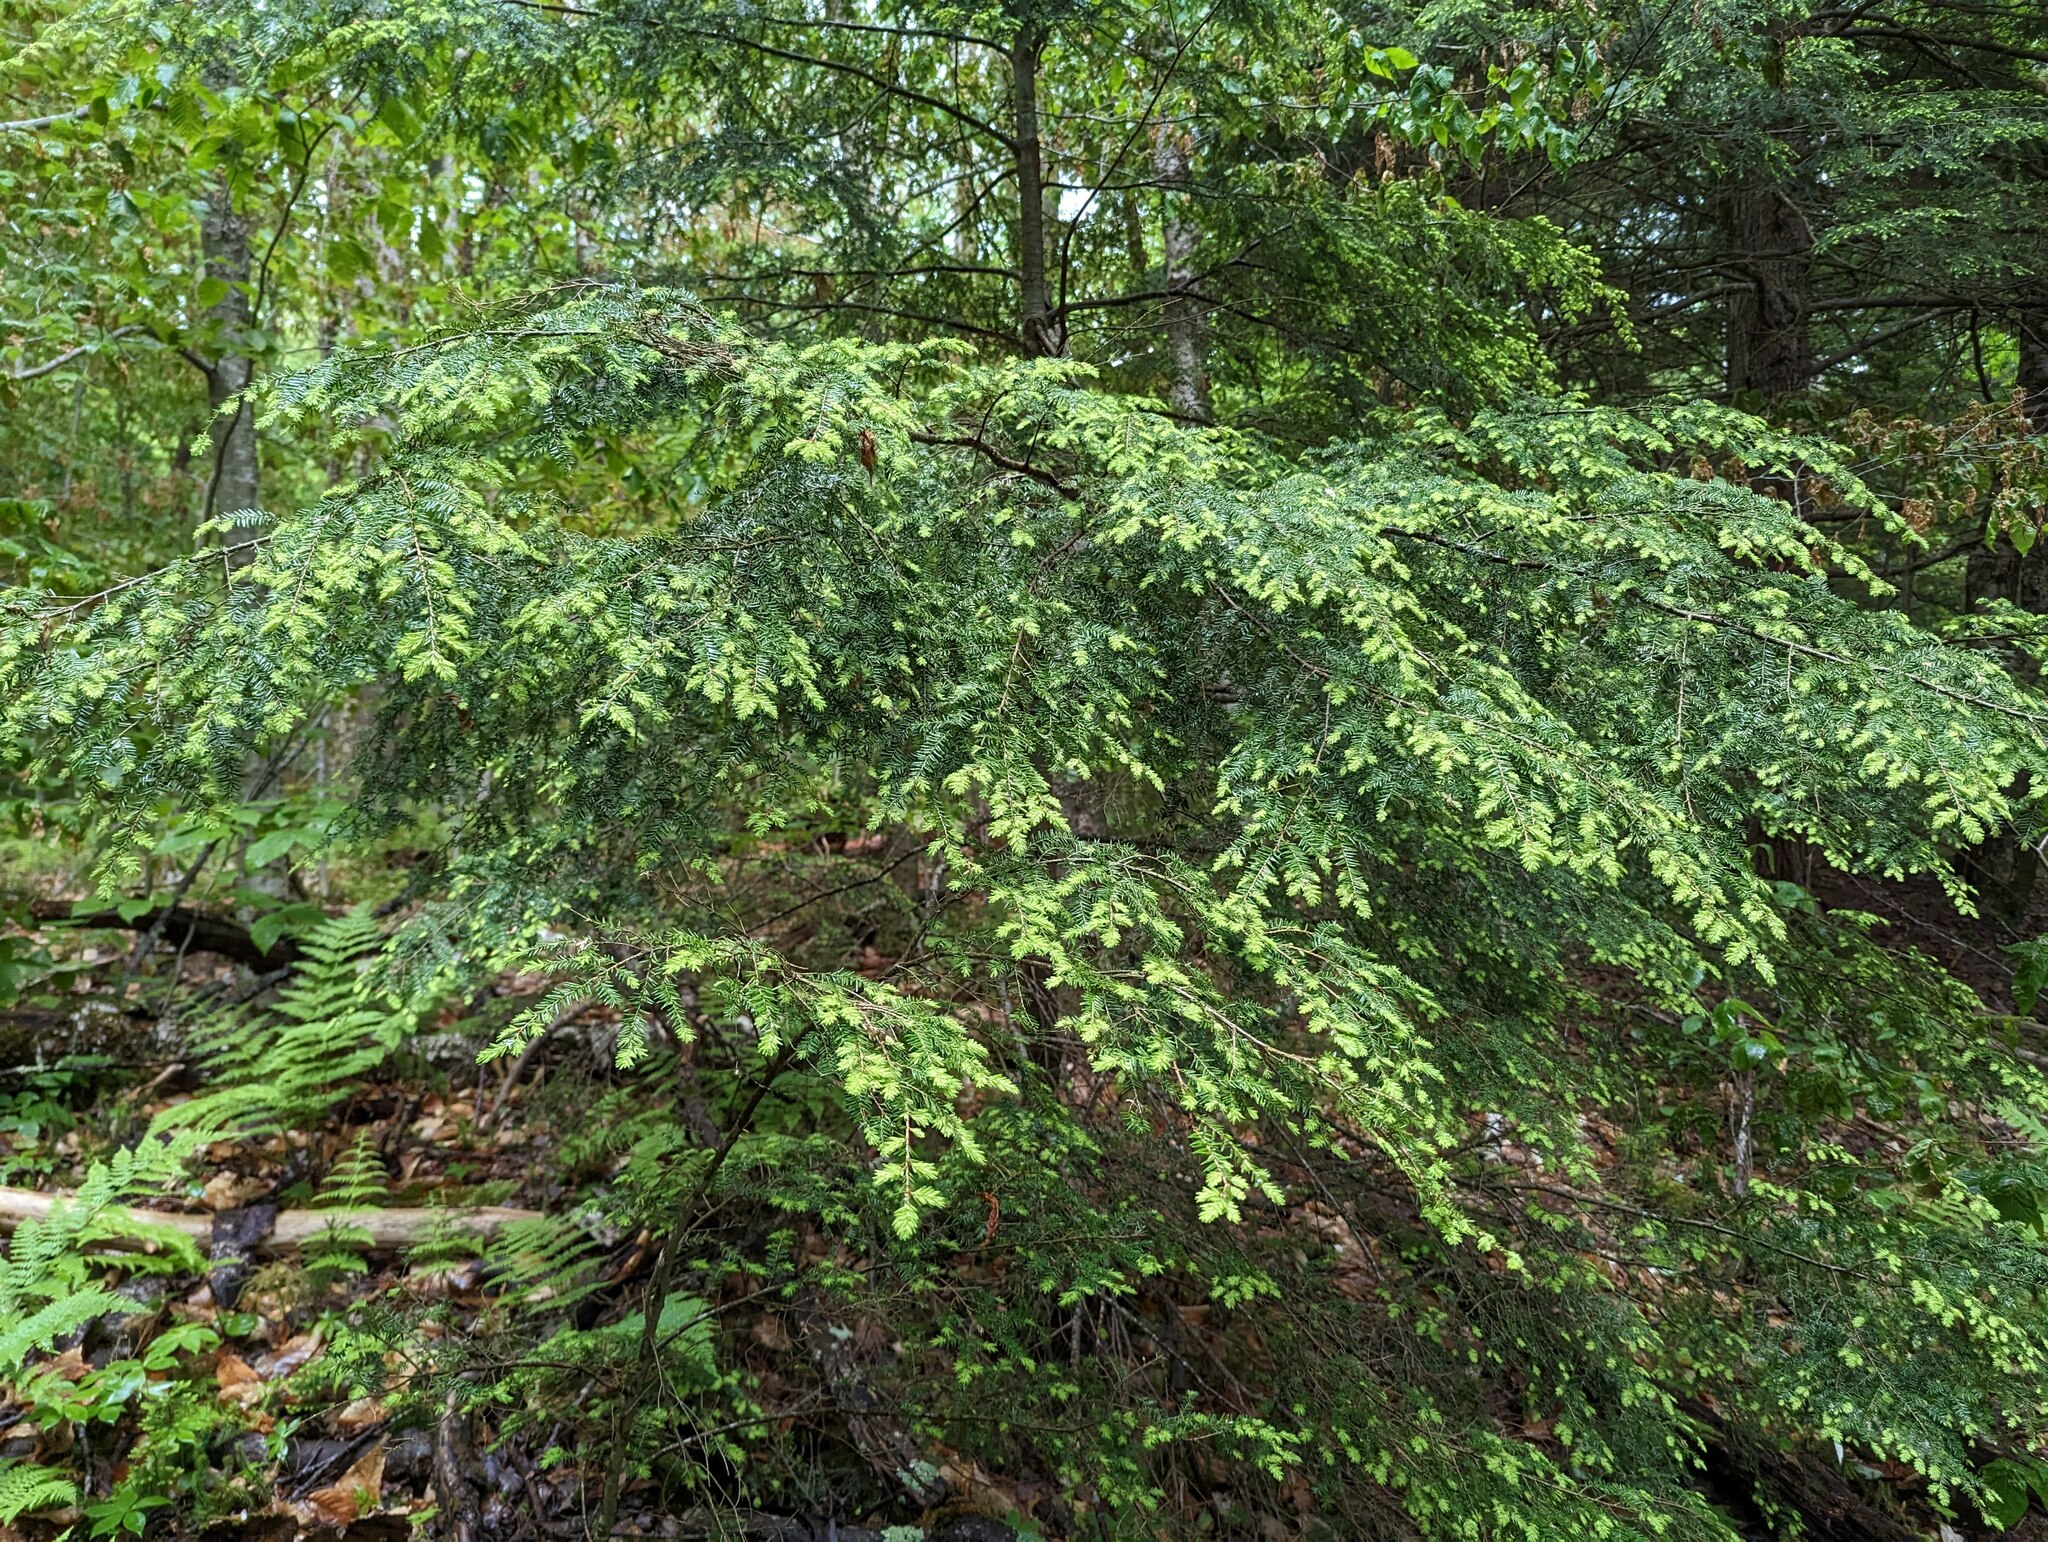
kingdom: Plantae
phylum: Tracheophyta
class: Pinopsida
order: Pinales
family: Pinaceae
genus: Tsuga
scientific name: Tsuga canadensis
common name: Eastern hemlock
